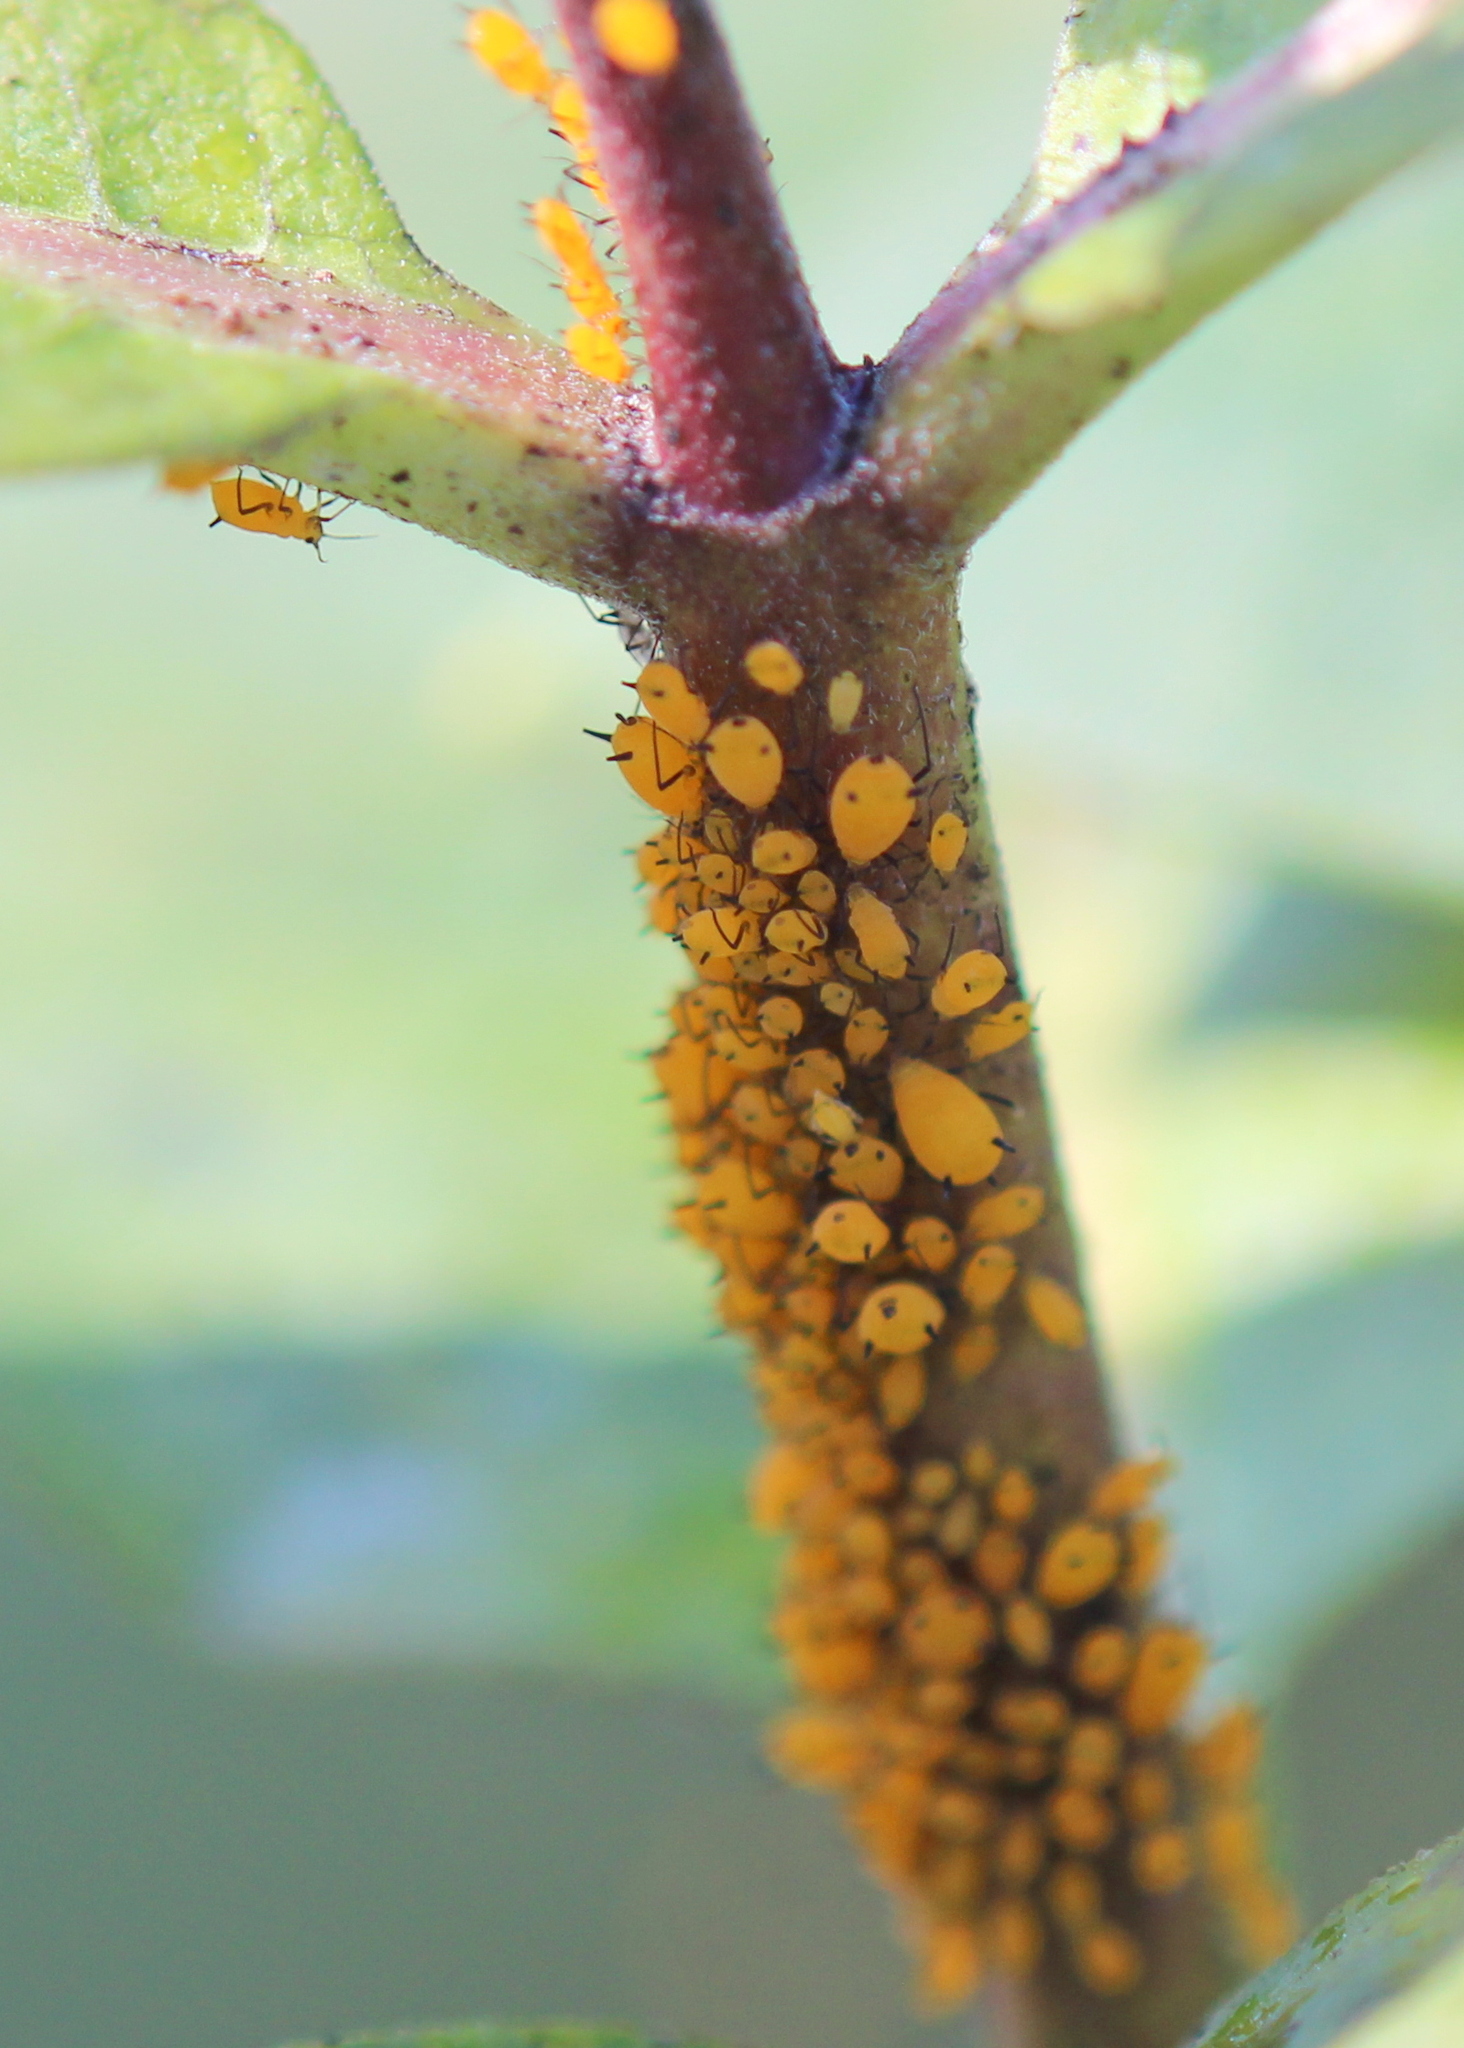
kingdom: Animalia
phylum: Arthropoda
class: Insecta
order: Hemiptera
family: Aphididae
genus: Aphis
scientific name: Aphis nerii
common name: Oleander aphid
